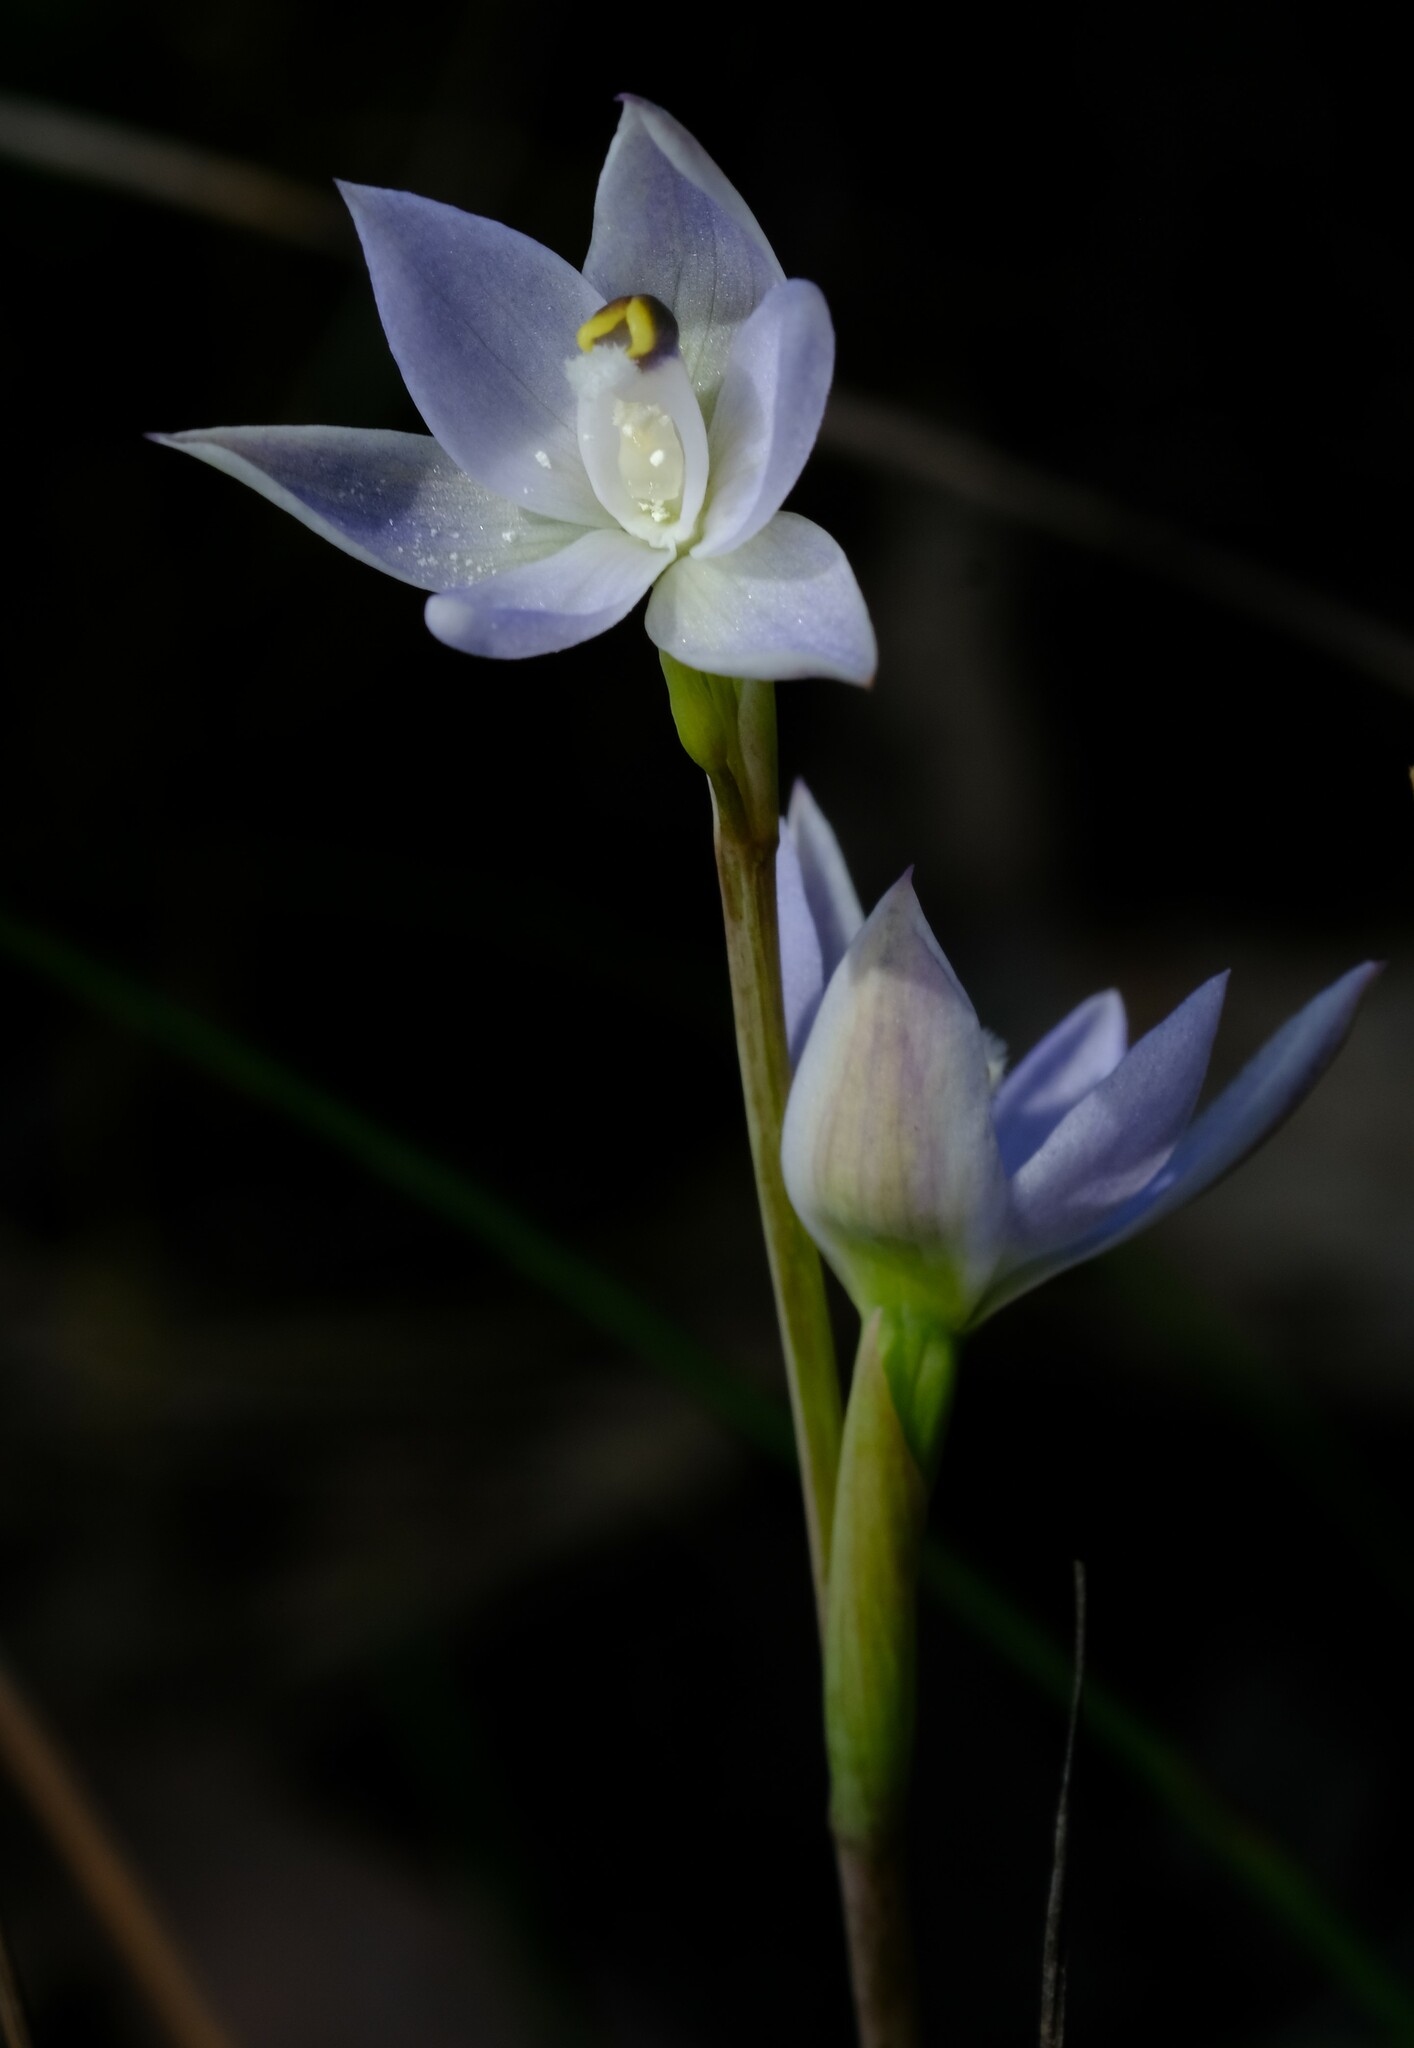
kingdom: Plantae
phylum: Tracheophyta
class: Liliopsida
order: Asparagales
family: Orchidaceae
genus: Thelymitra
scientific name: Thelymitra pallidiflora
